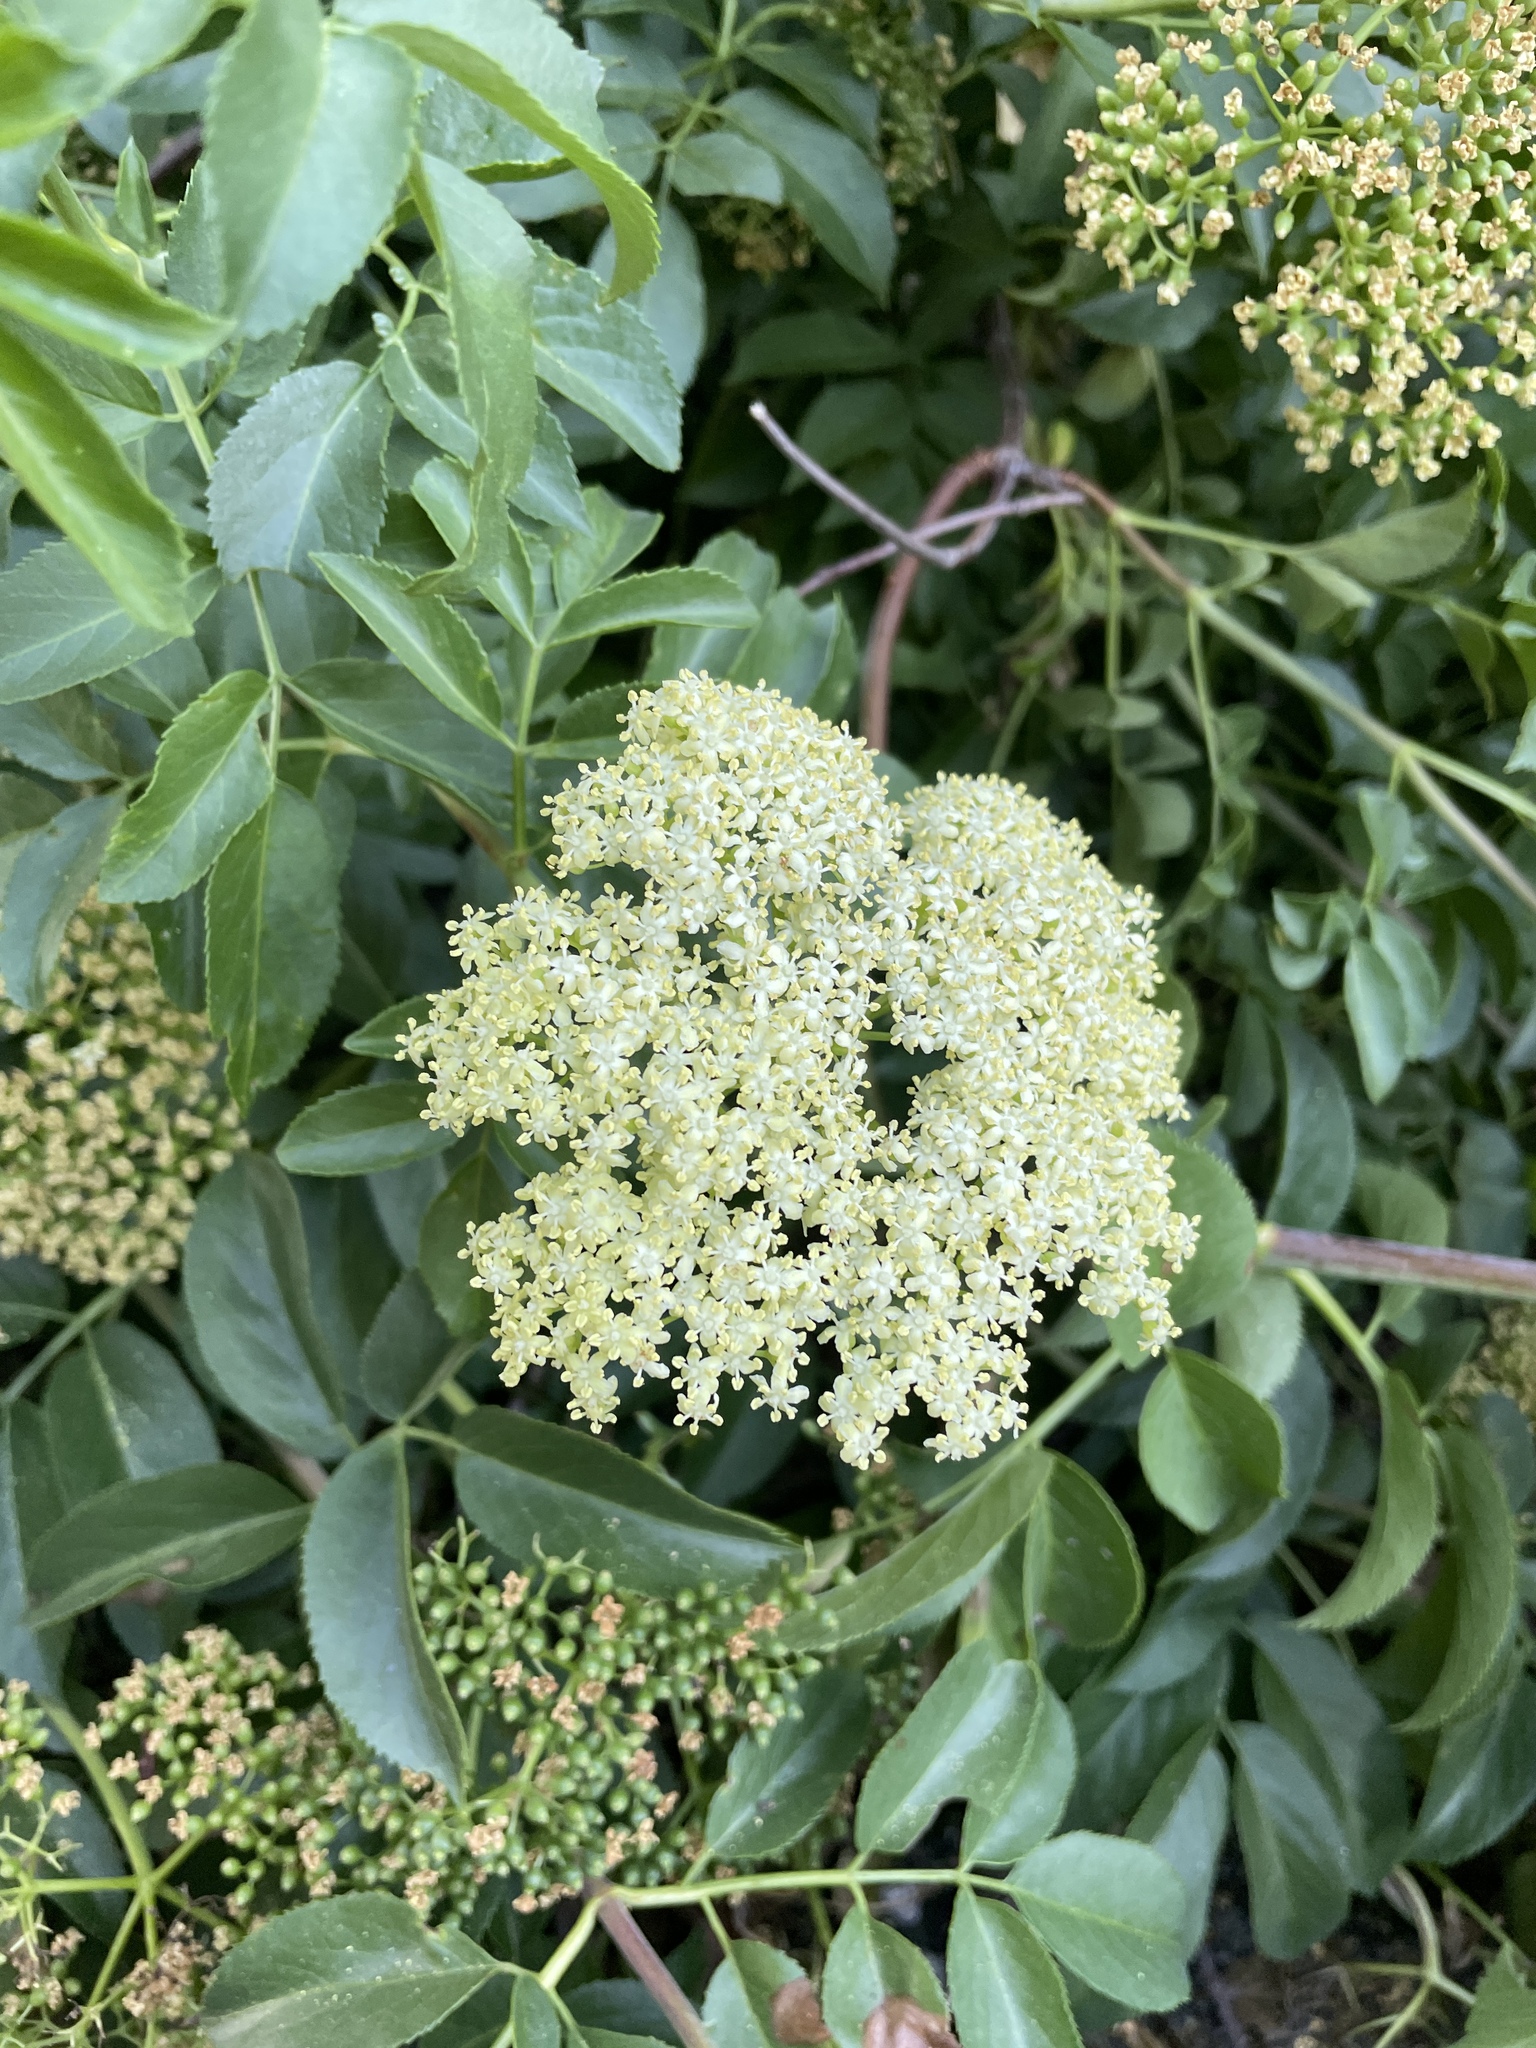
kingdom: Plantae
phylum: Tracheophyta
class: Magnoliopsida
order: Dipsacales
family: Viburnaceae
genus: Sambucus
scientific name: Sambucus cerulea
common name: Blue elder
